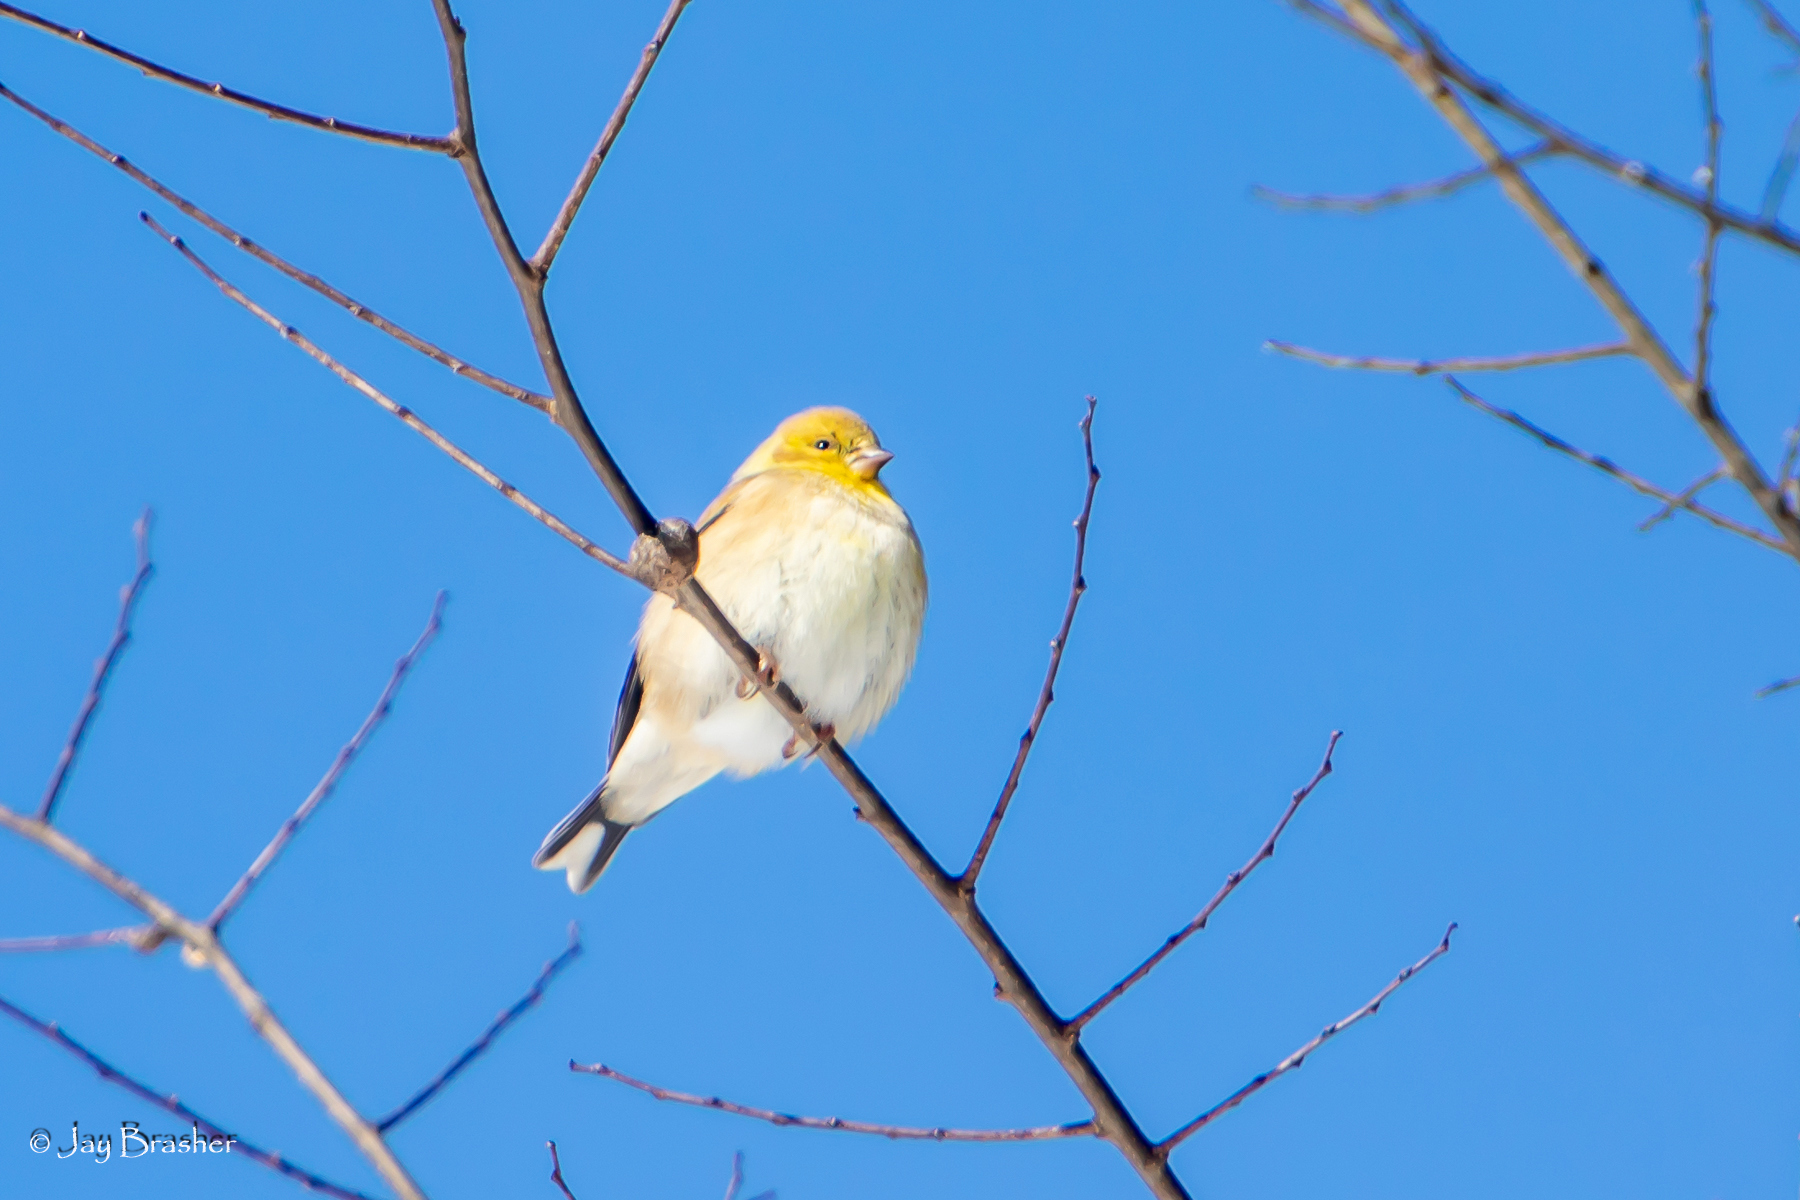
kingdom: Animalia
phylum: Chordata
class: Aves
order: Passeriformes
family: Fringillidae
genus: Spinus
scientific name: Spinus tristis
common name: American goldfinch
